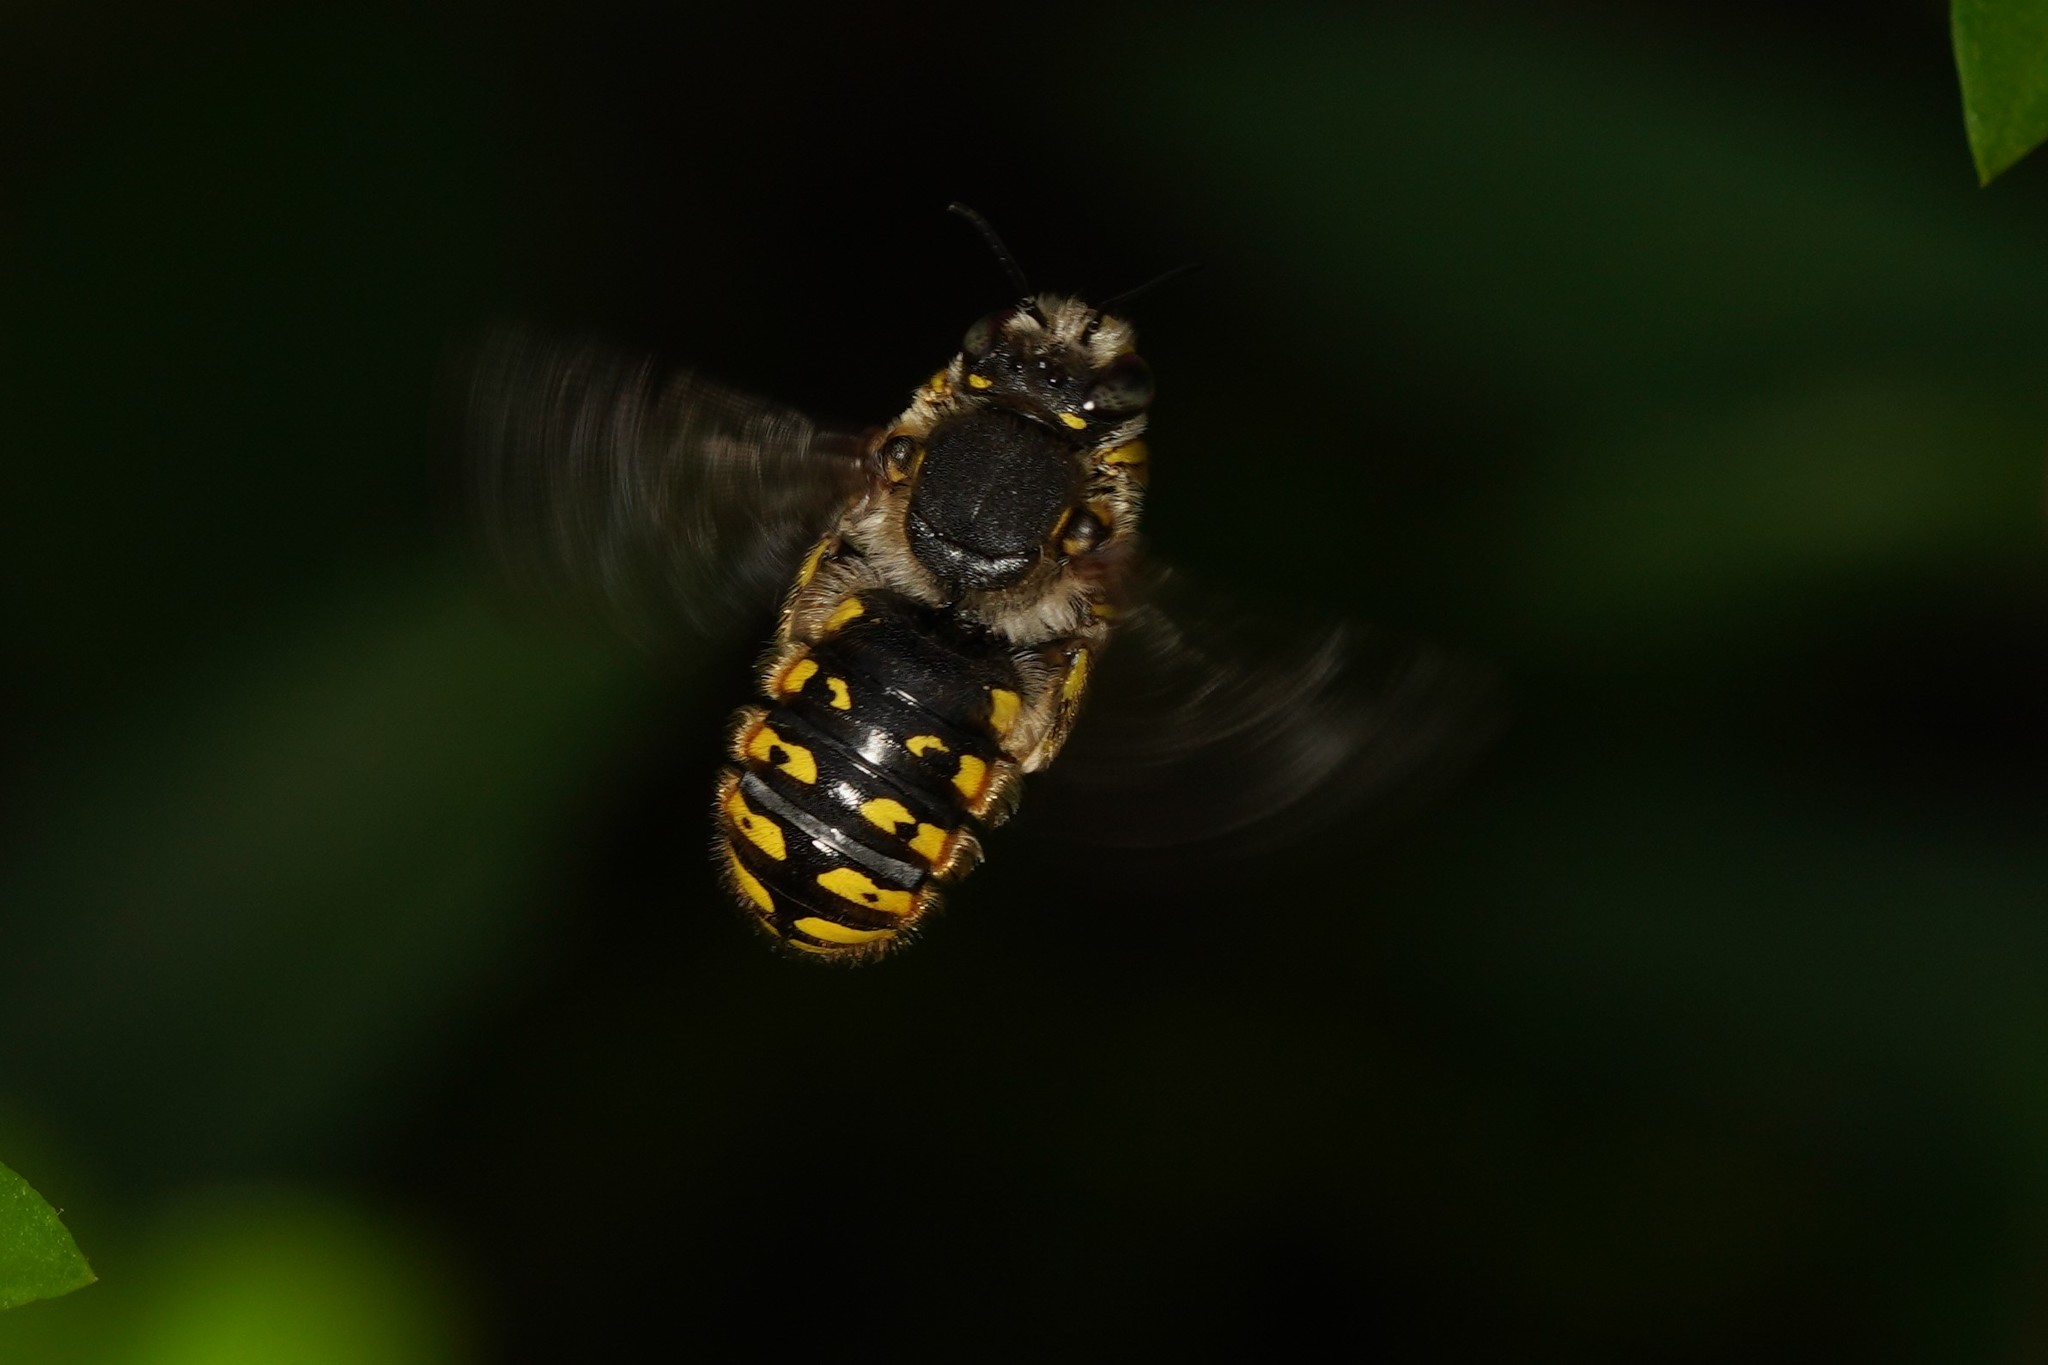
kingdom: Animalia
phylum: Arthropoda
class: Insecta
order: Hymenoptera
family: Megachilidae
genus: Anthidium
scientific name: Anthidium manicatum
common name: Wool carder bee
